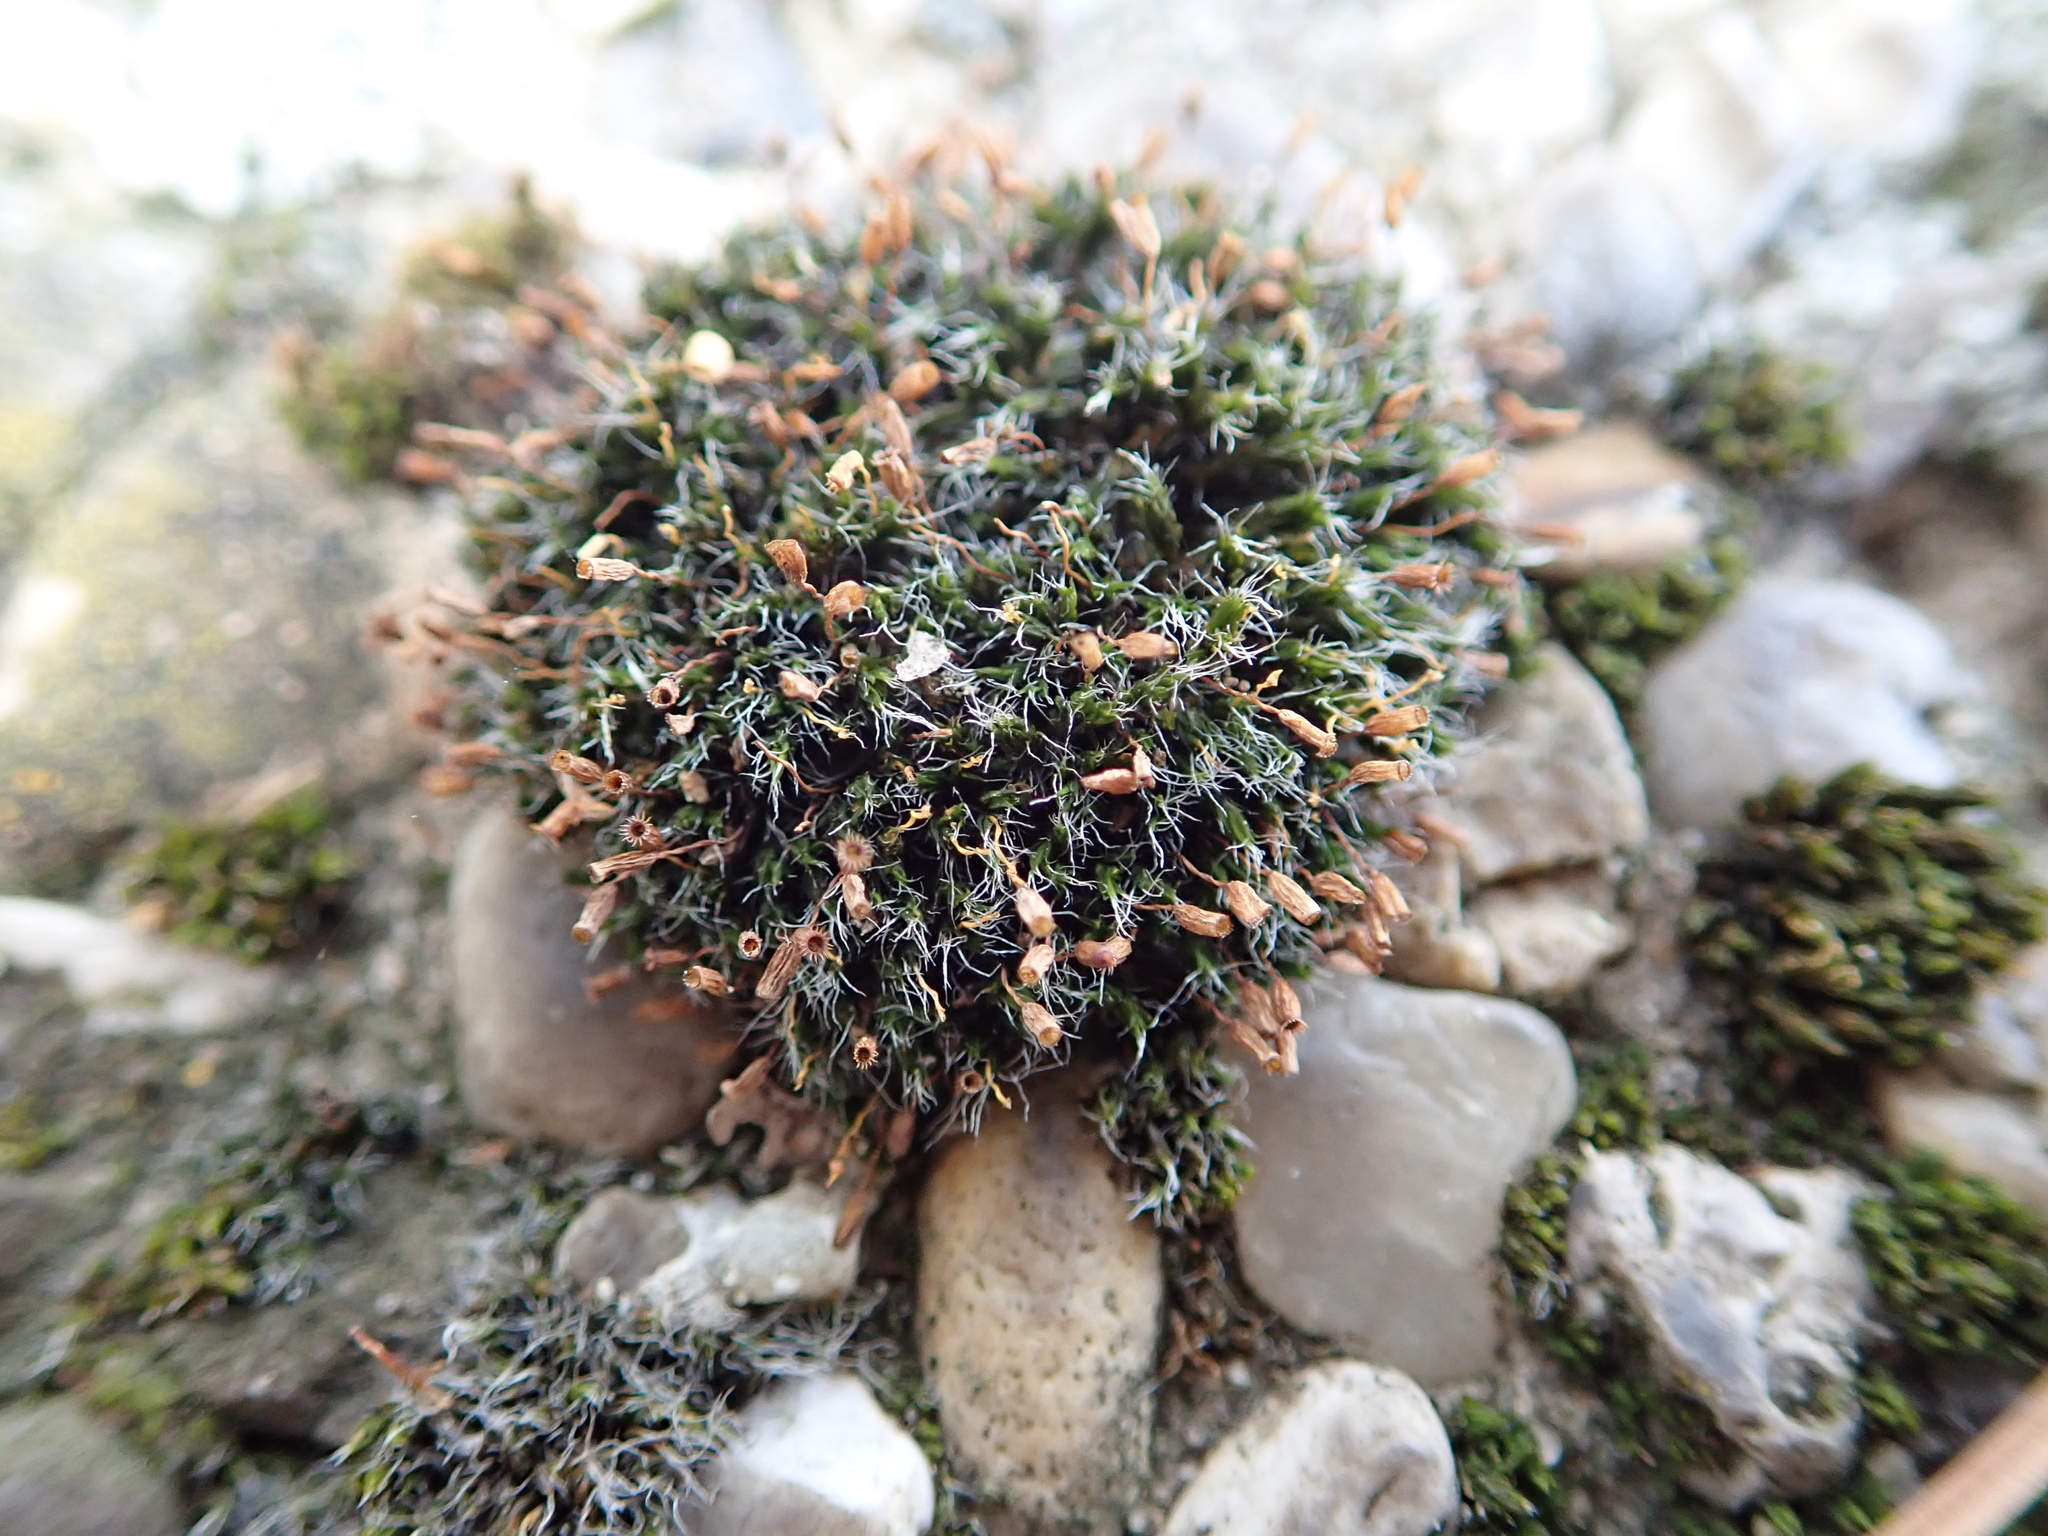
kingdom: Plantae
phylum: Bryophyta
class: Bryopsida
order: Grimmiales
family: Grimmiaceae
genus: Grimmia
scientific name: Grimmia pulvinata
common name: Grey-cushioned grimmia
